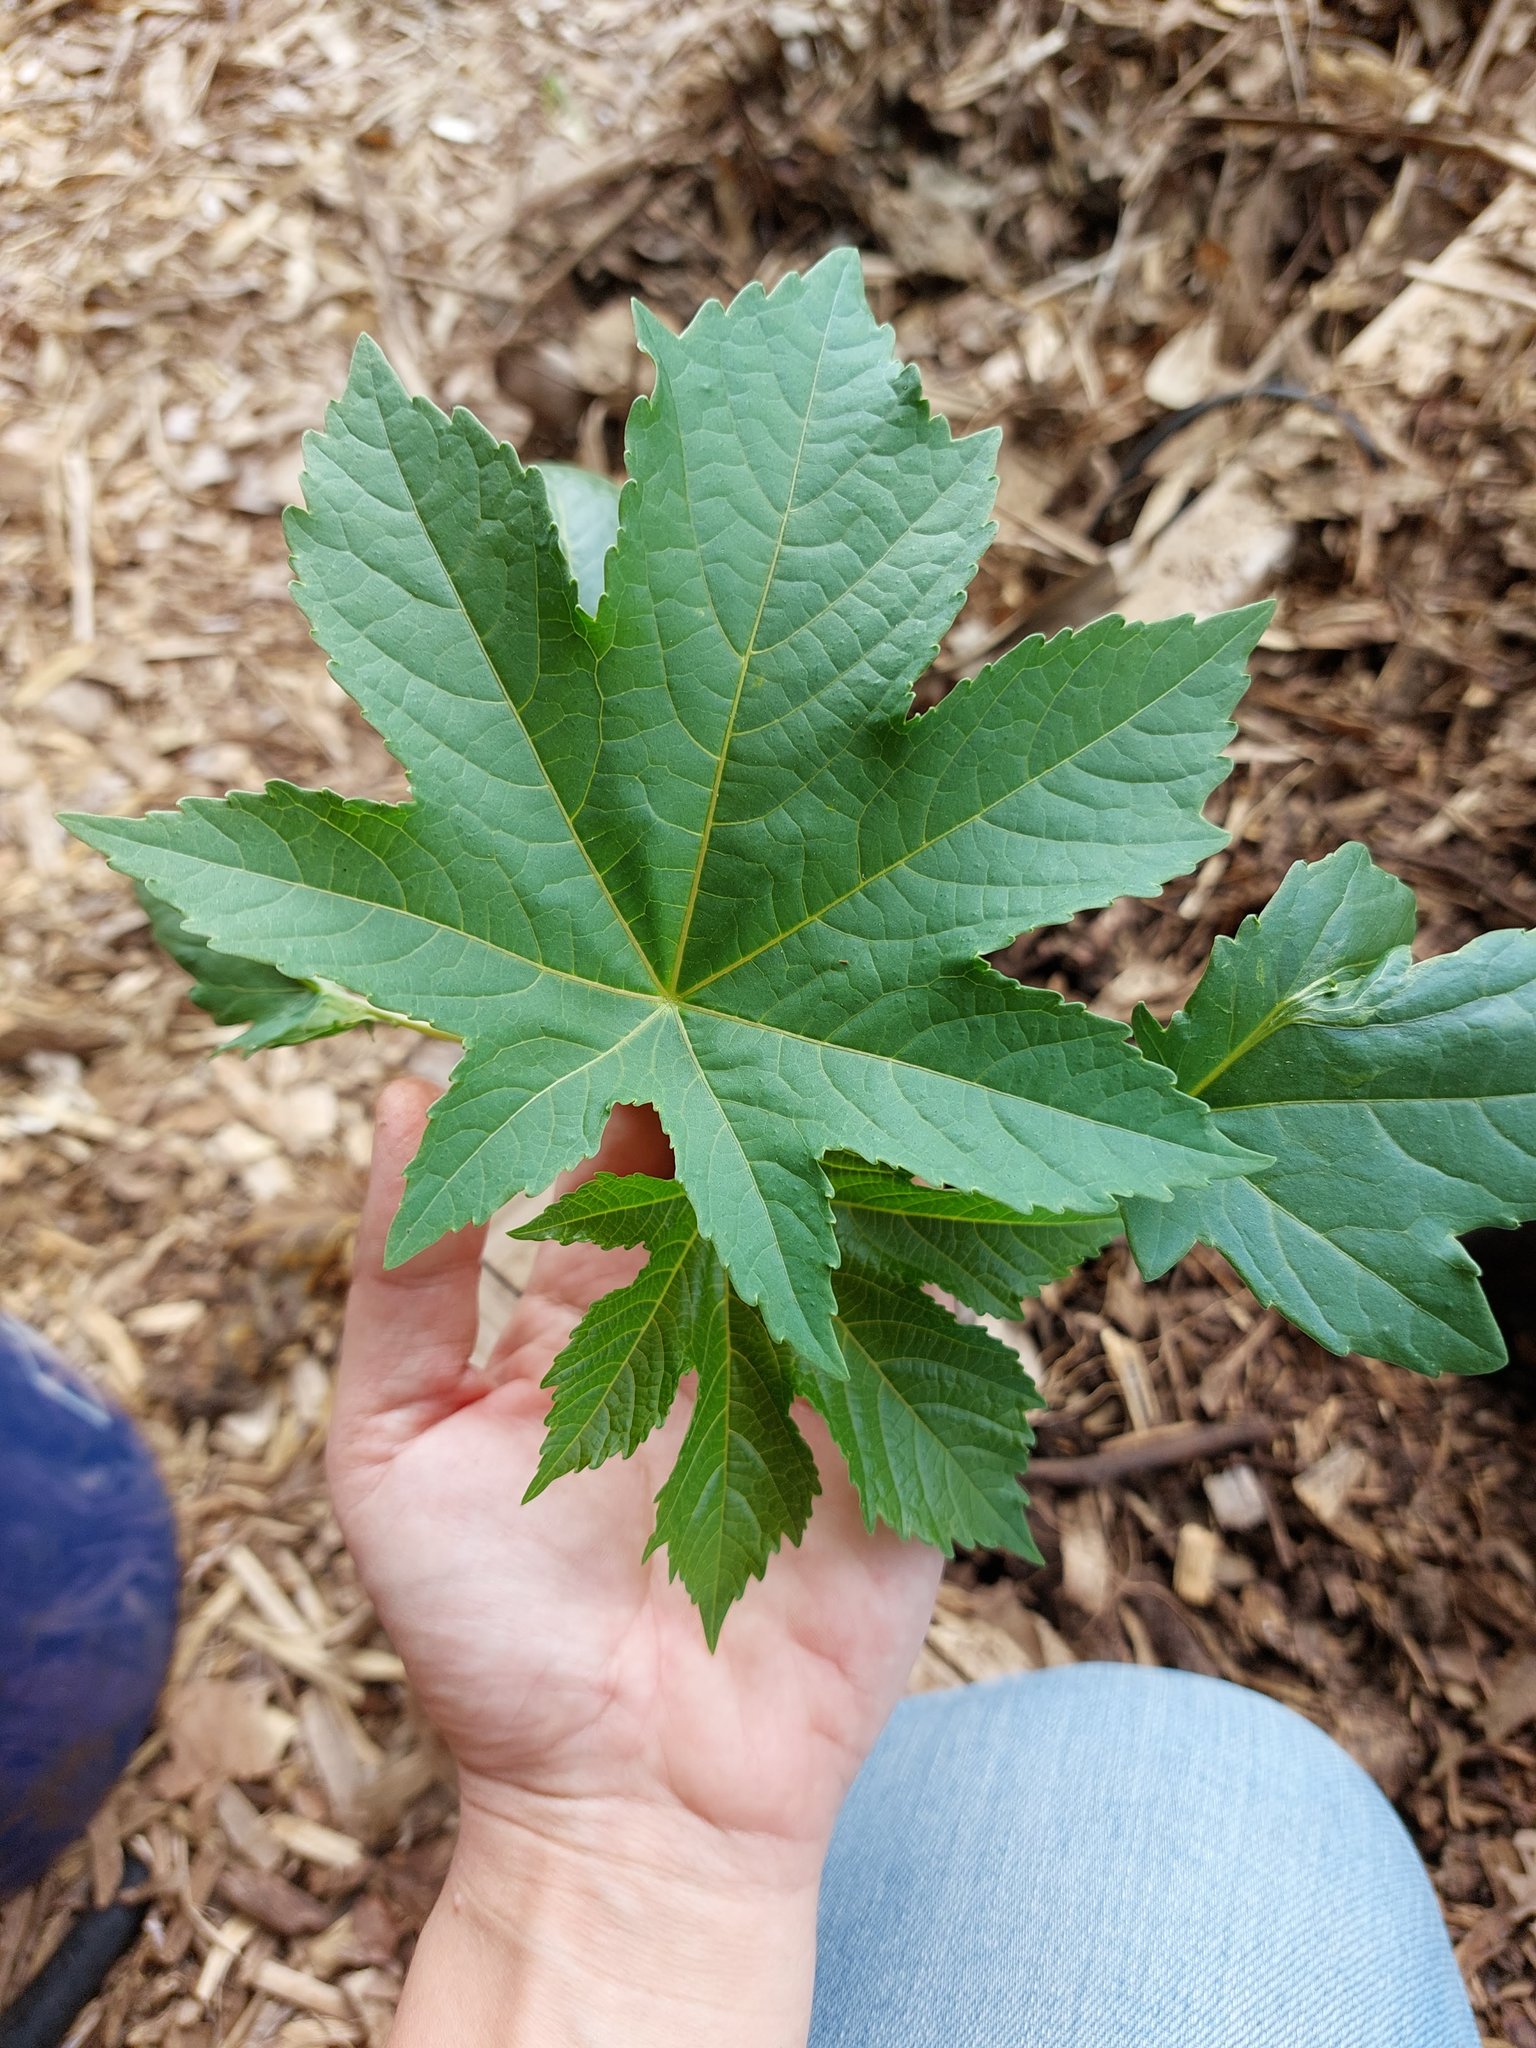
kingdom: Plantae
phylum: Tracheophyta
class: Magnoliopsida
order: Malpighiales
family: Euphorbiaceae
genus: Ricinus
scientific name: Ricinus communis
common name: Castor-oil-plant
